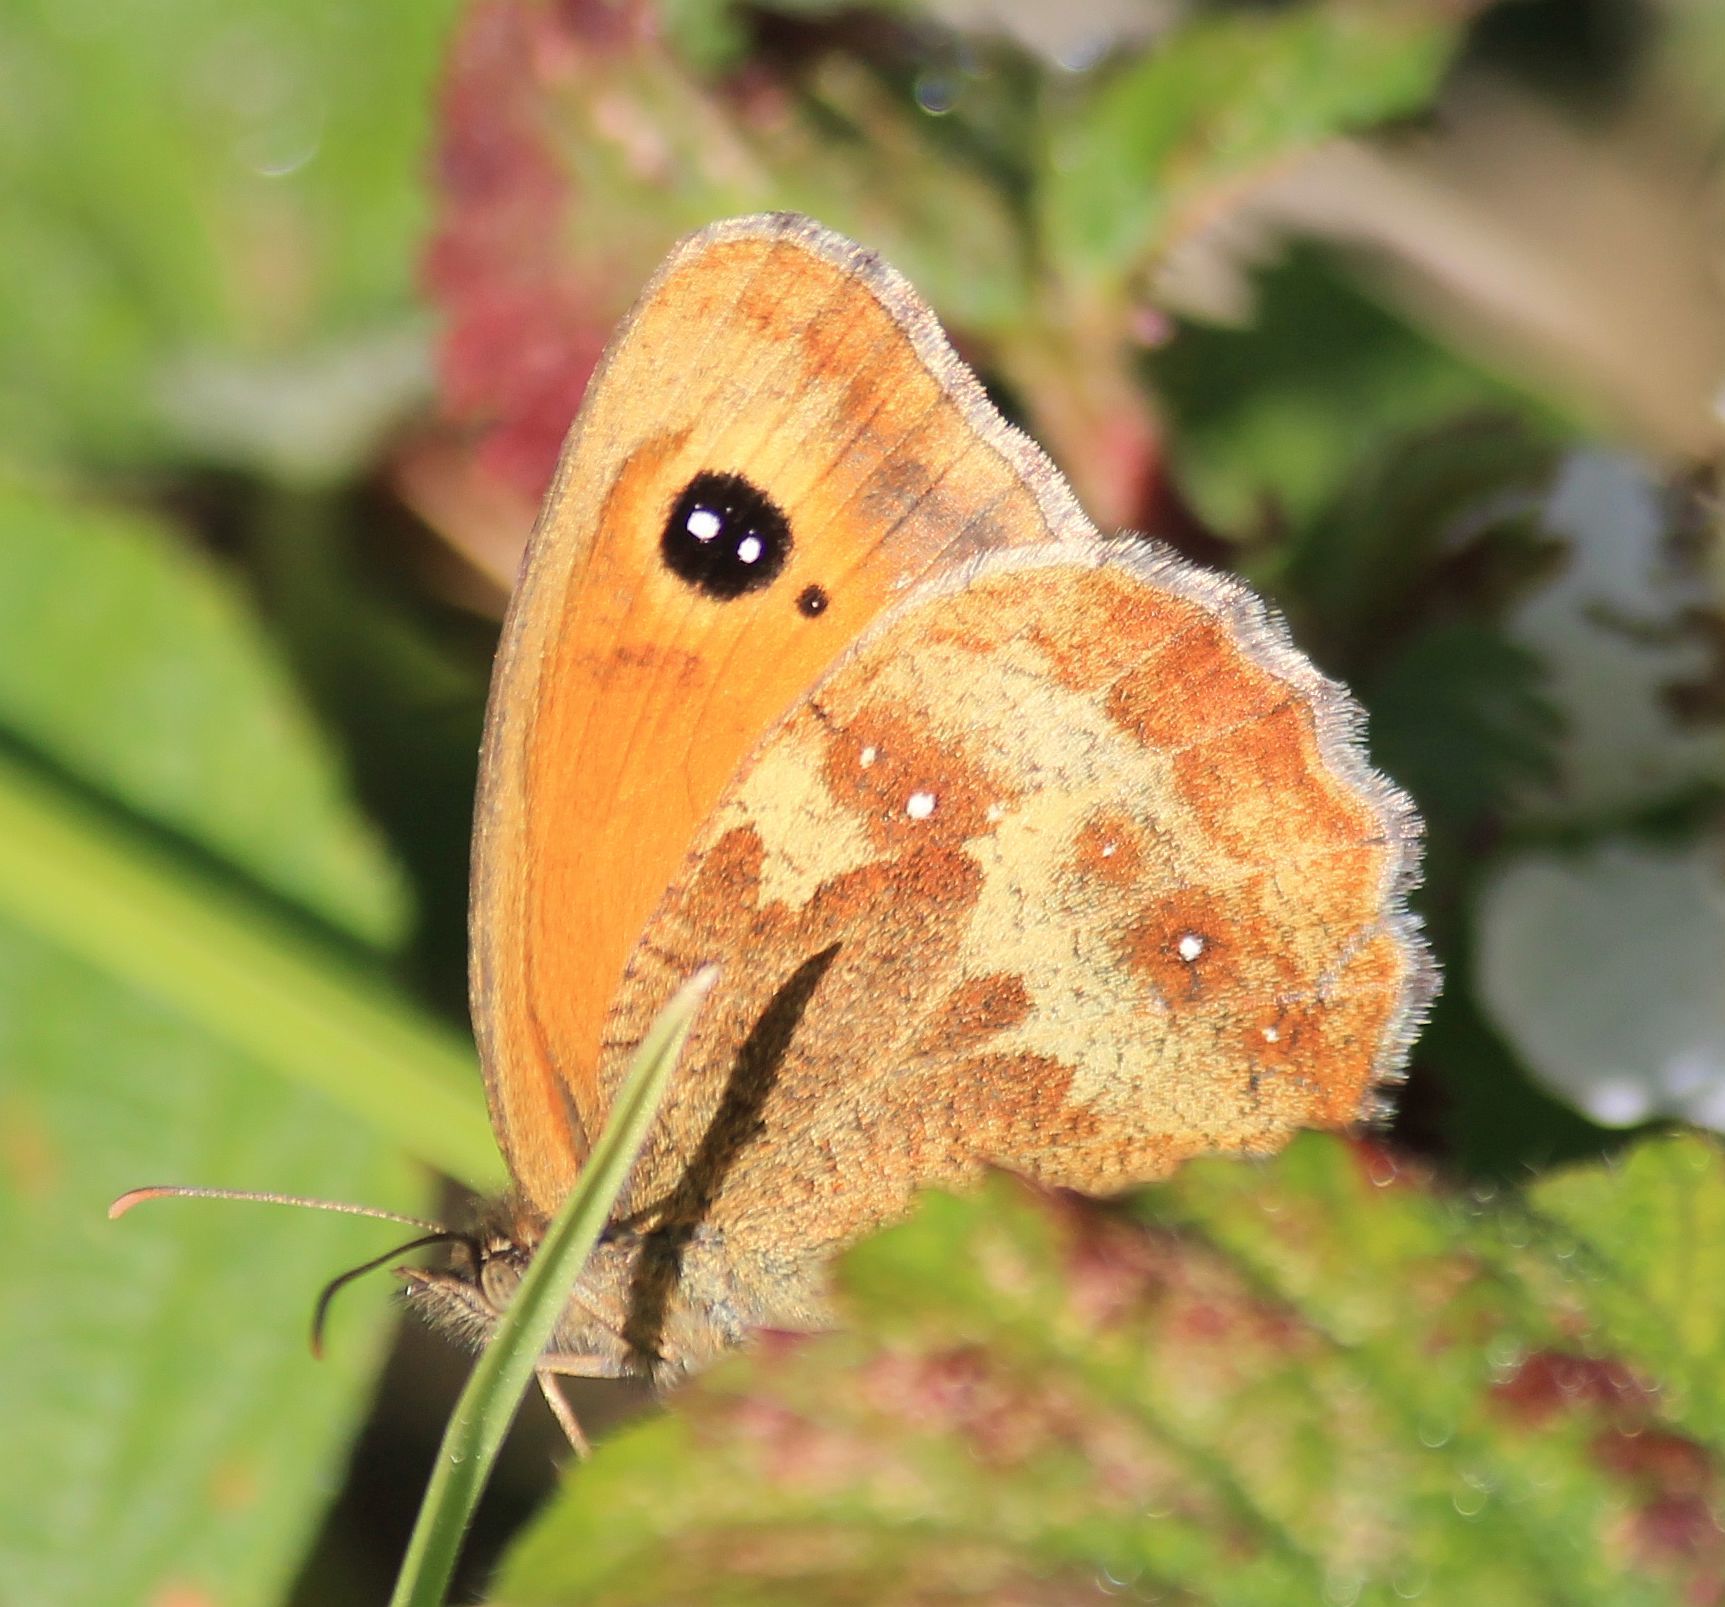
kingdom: Animalia
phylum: Arthropoda
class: Insecta
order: Lepidoptera
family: Nymphalidae
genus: Pyronia
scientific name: Pyronia tithonus
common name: Gatekeeper
